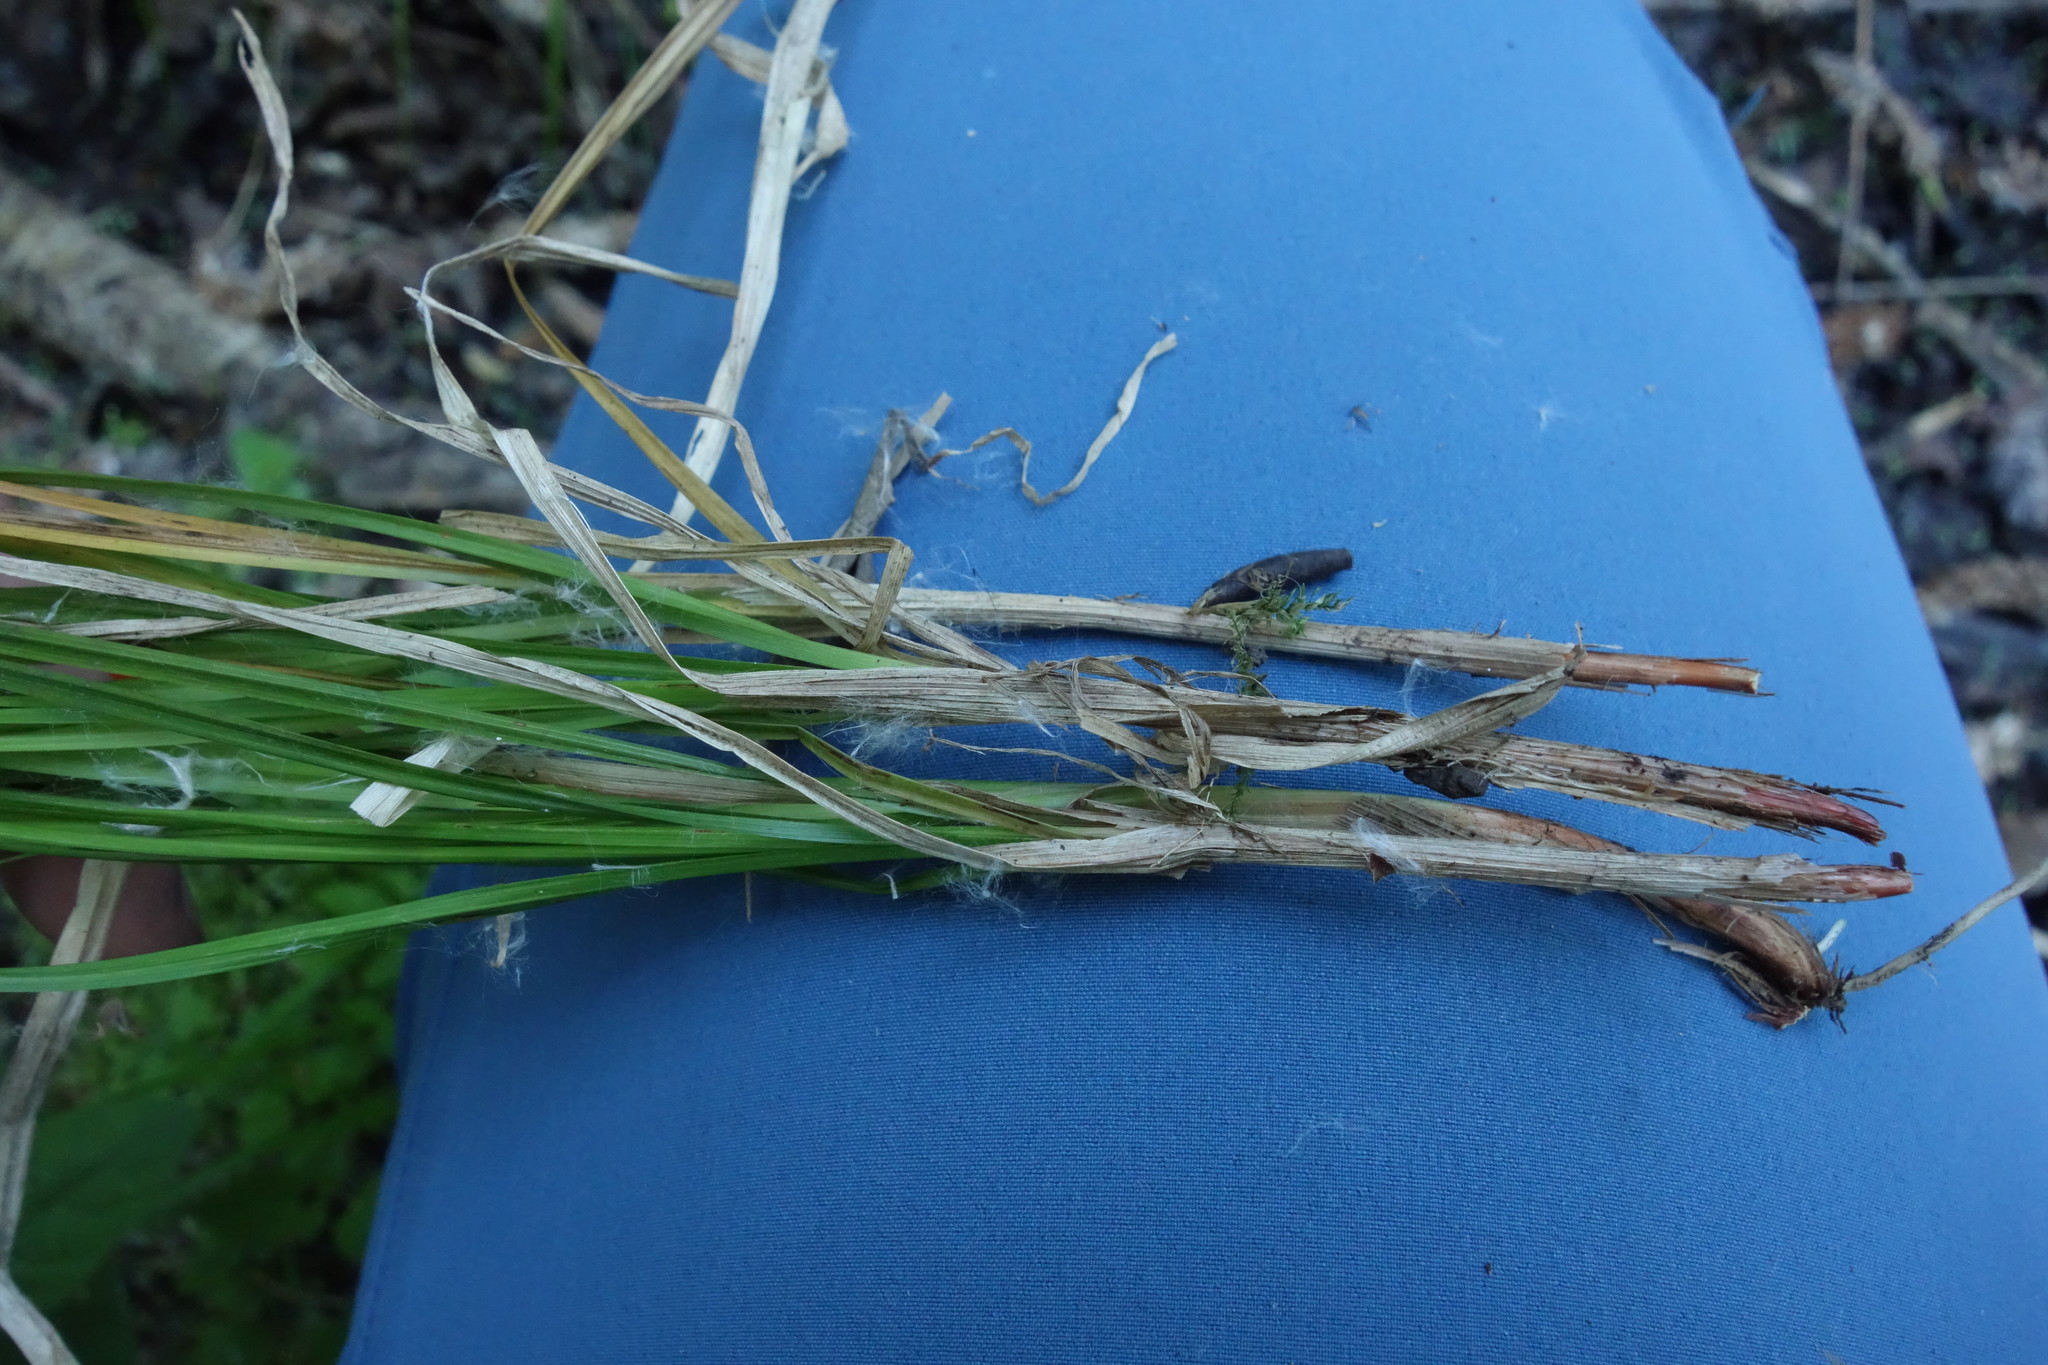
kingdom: Plantae
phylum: Tracheophyta
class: Liliopsida
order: Poales
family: Cyperaceae
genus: Carex
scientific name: Carex elongata
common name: Elongated sedge
